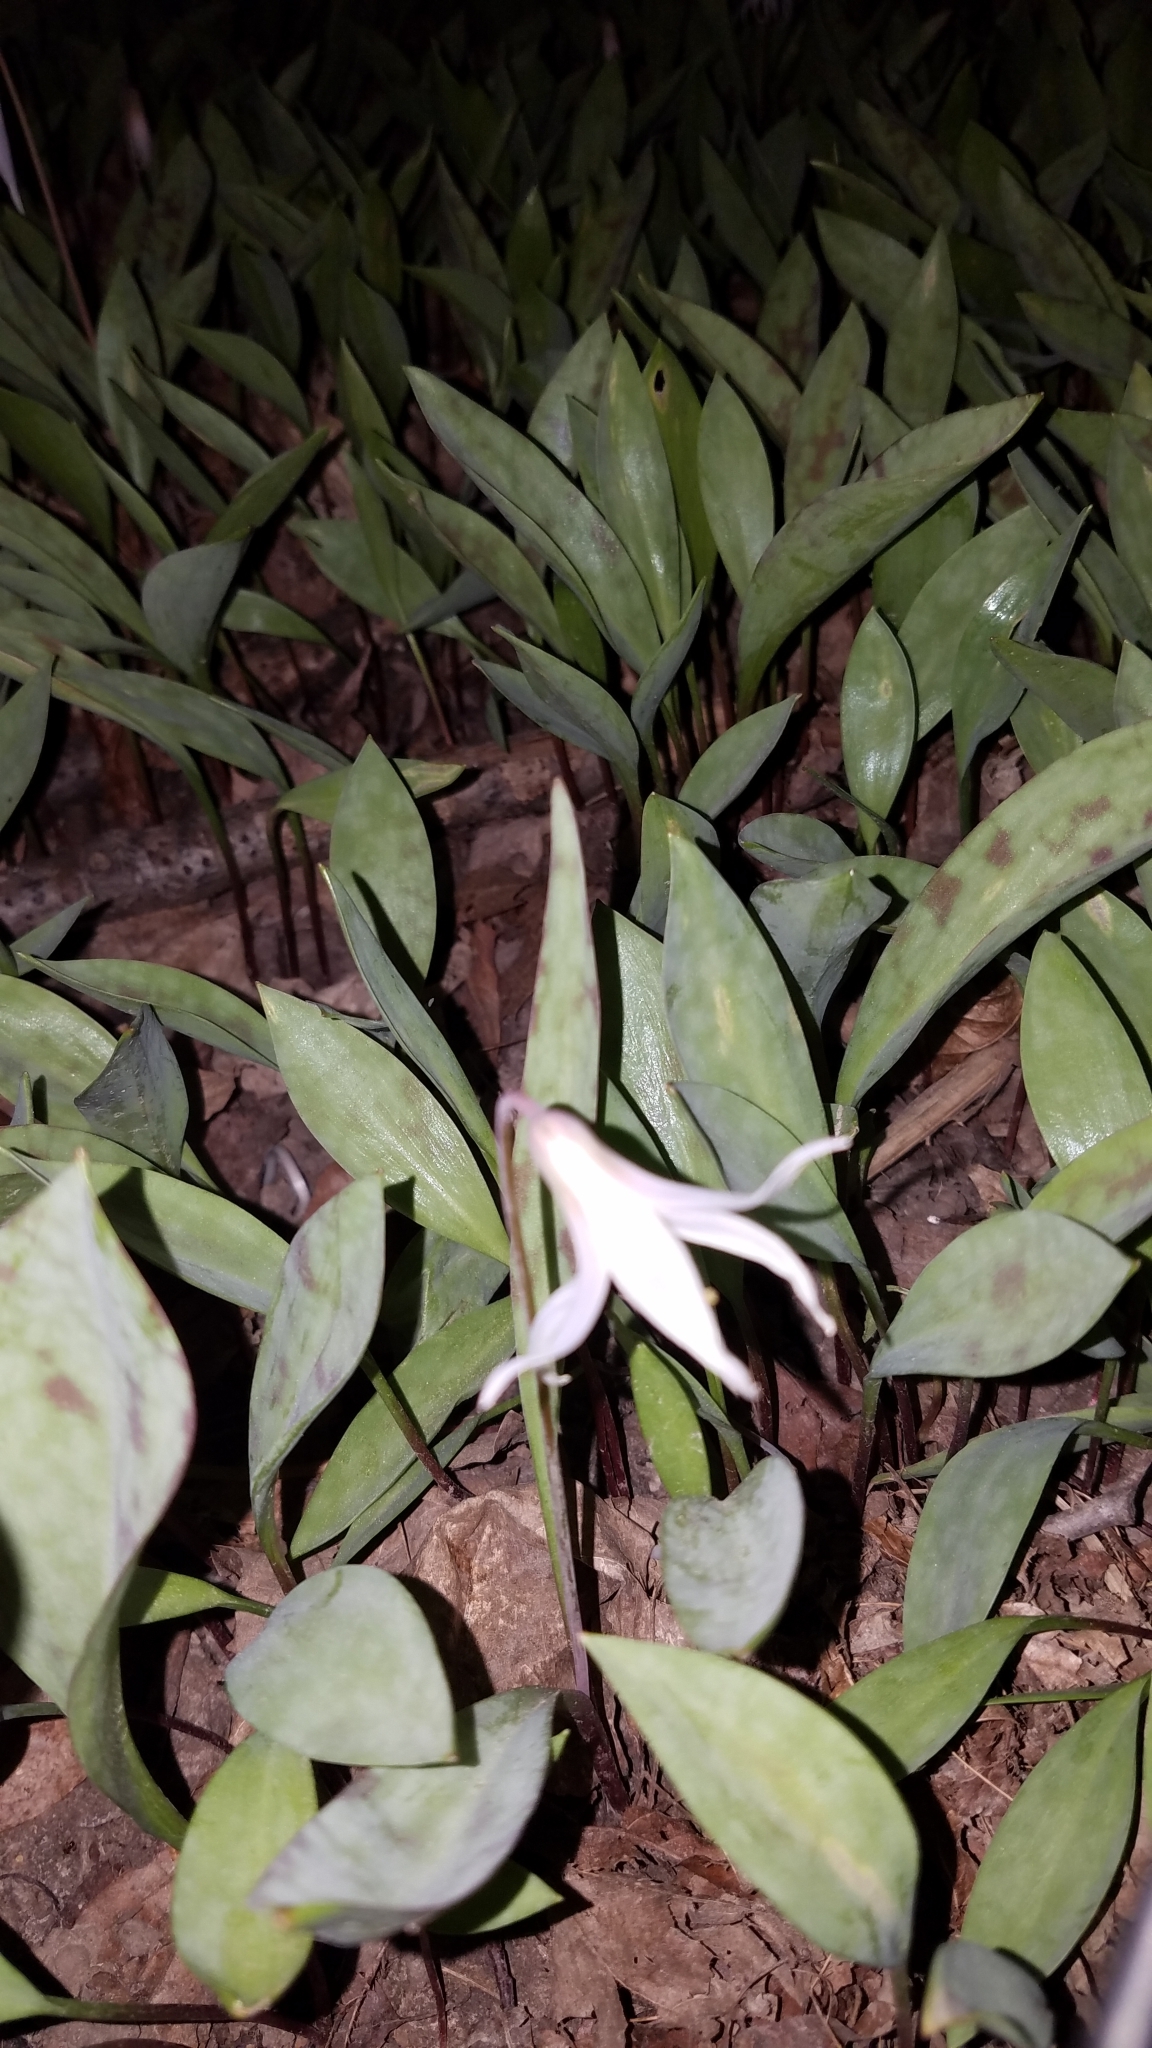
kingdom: Plantae
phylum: Tracheophyta
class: Liliopsida
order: Liliales
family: Liliaceae
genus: Erythronium
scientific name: Erythronium albidum
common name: White trout-lily
